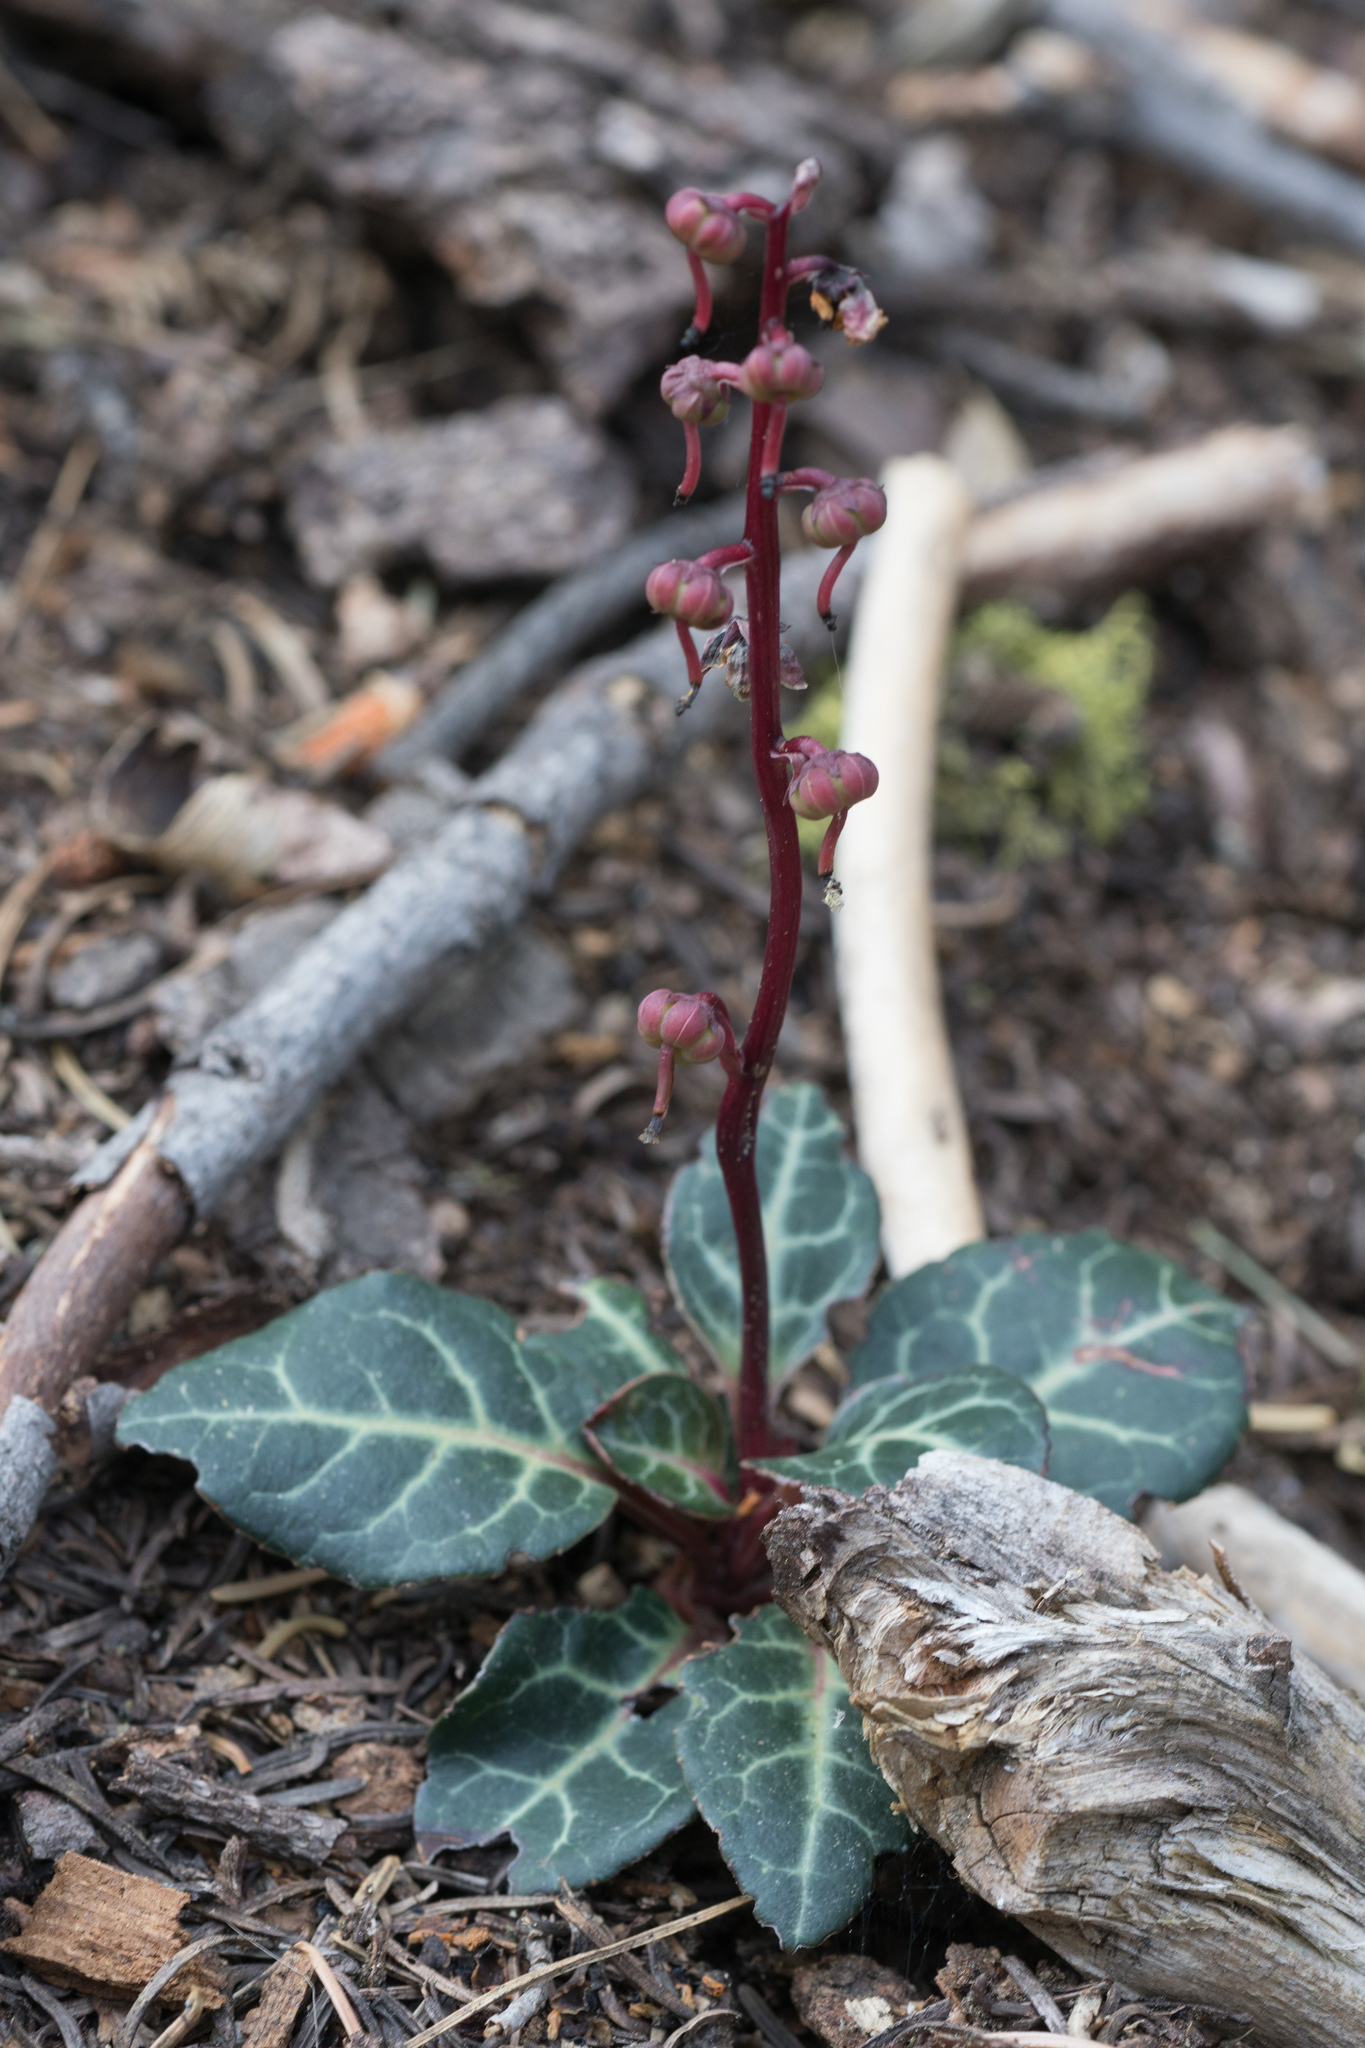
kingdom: Plantae
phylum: Tracheophyta
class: Magnoliopsida
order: Ericales
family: Ericaceae
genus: Pyrola
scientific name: Pyrola picta
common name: White-vein wintergreen
